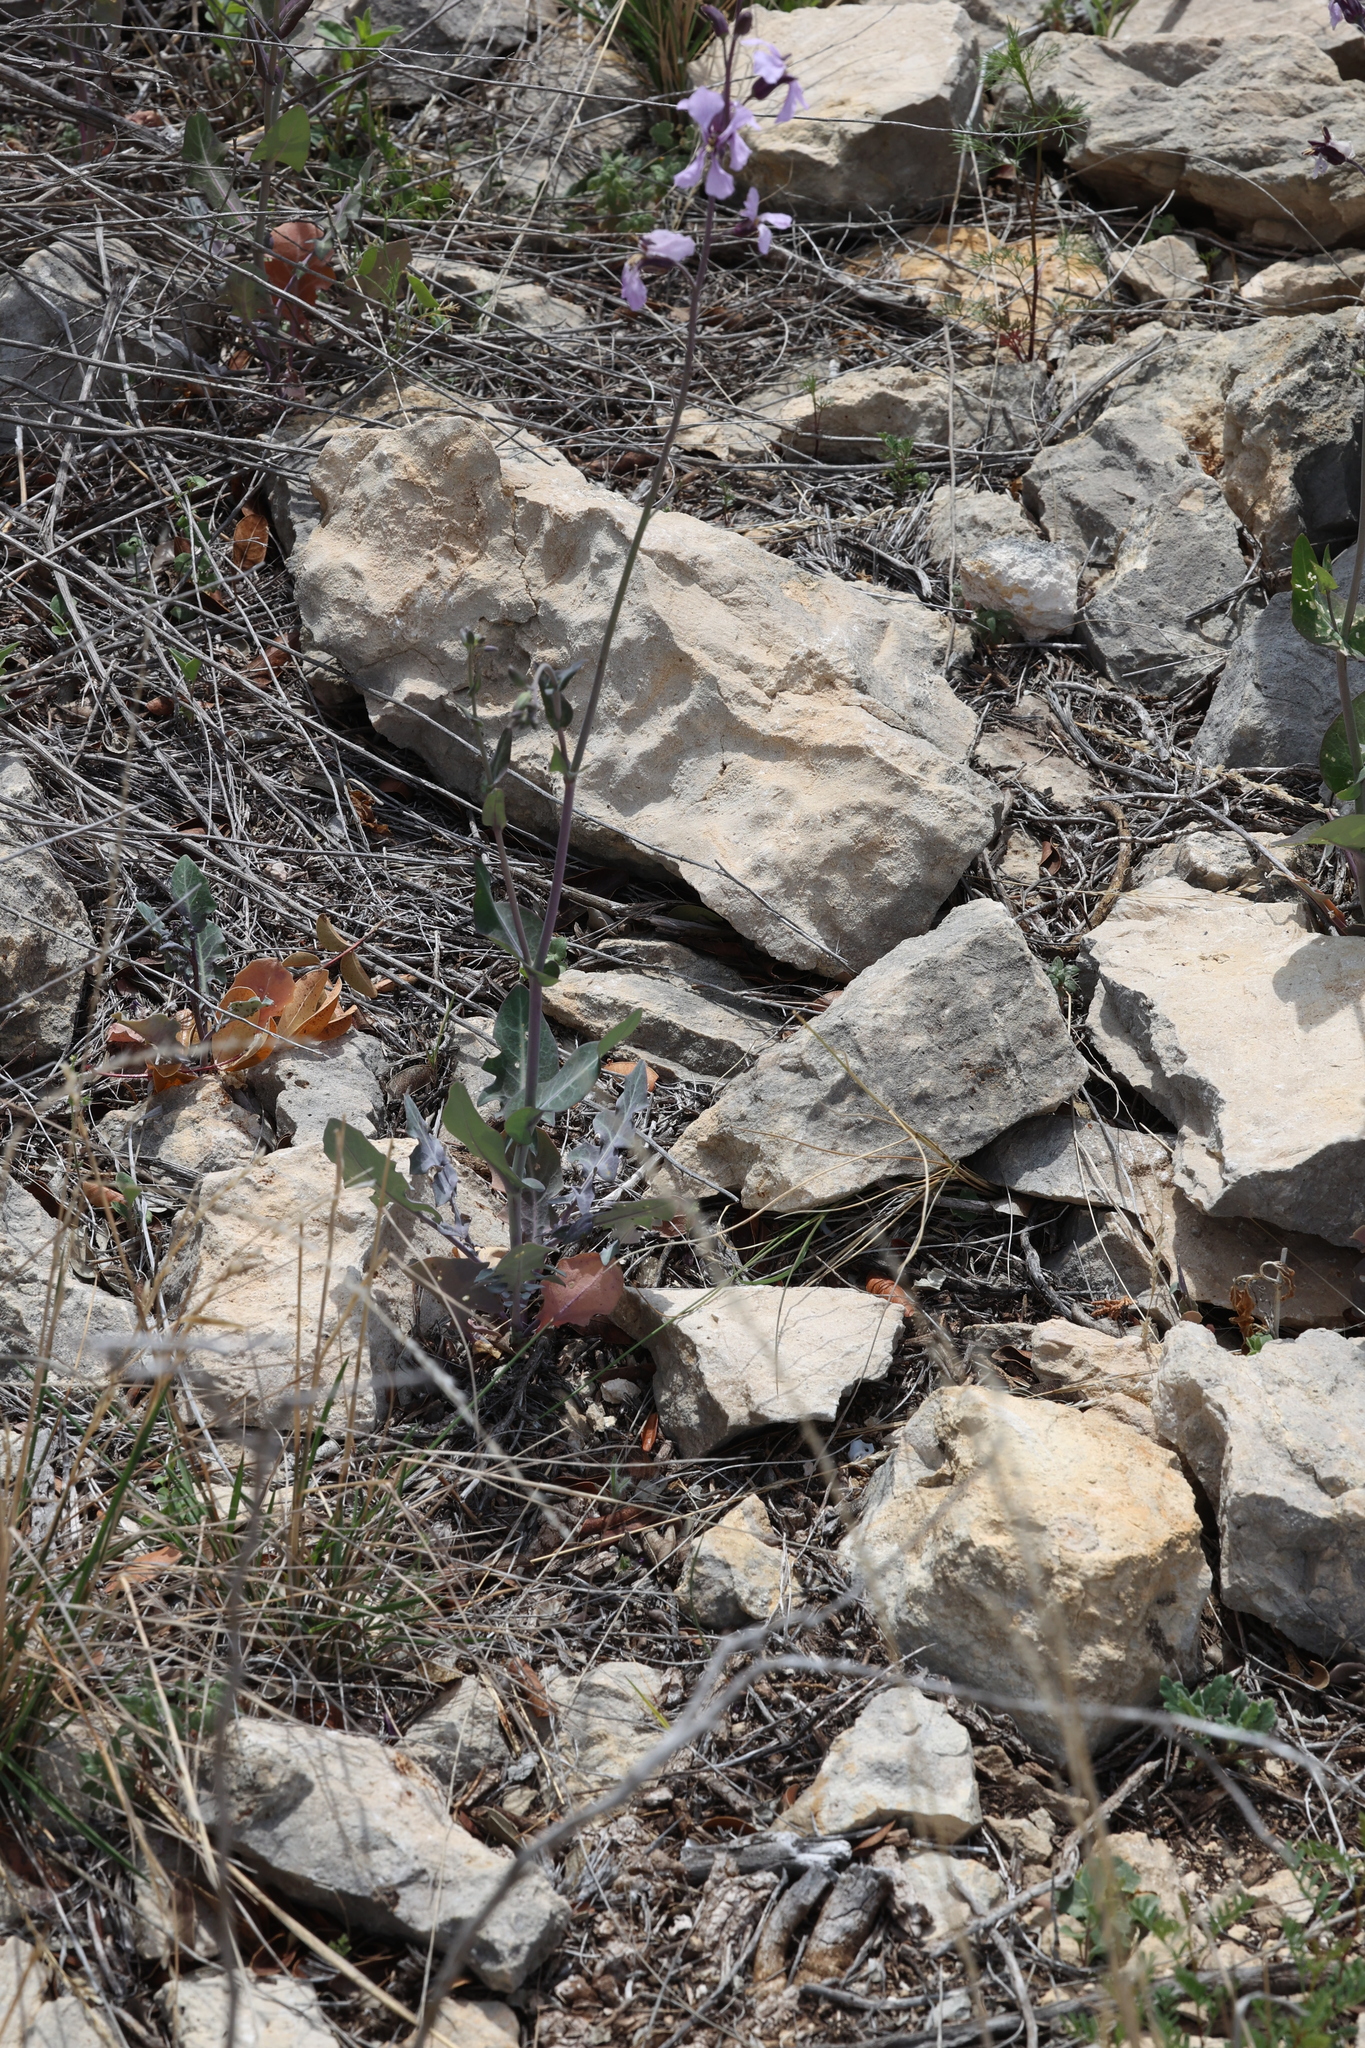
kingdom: Plantae
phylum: Tracheophyta
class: Magnoliopsida
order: Brassicales
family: Brassicaceae
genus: Streptanthus
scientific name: Streptanthus platycarpus
